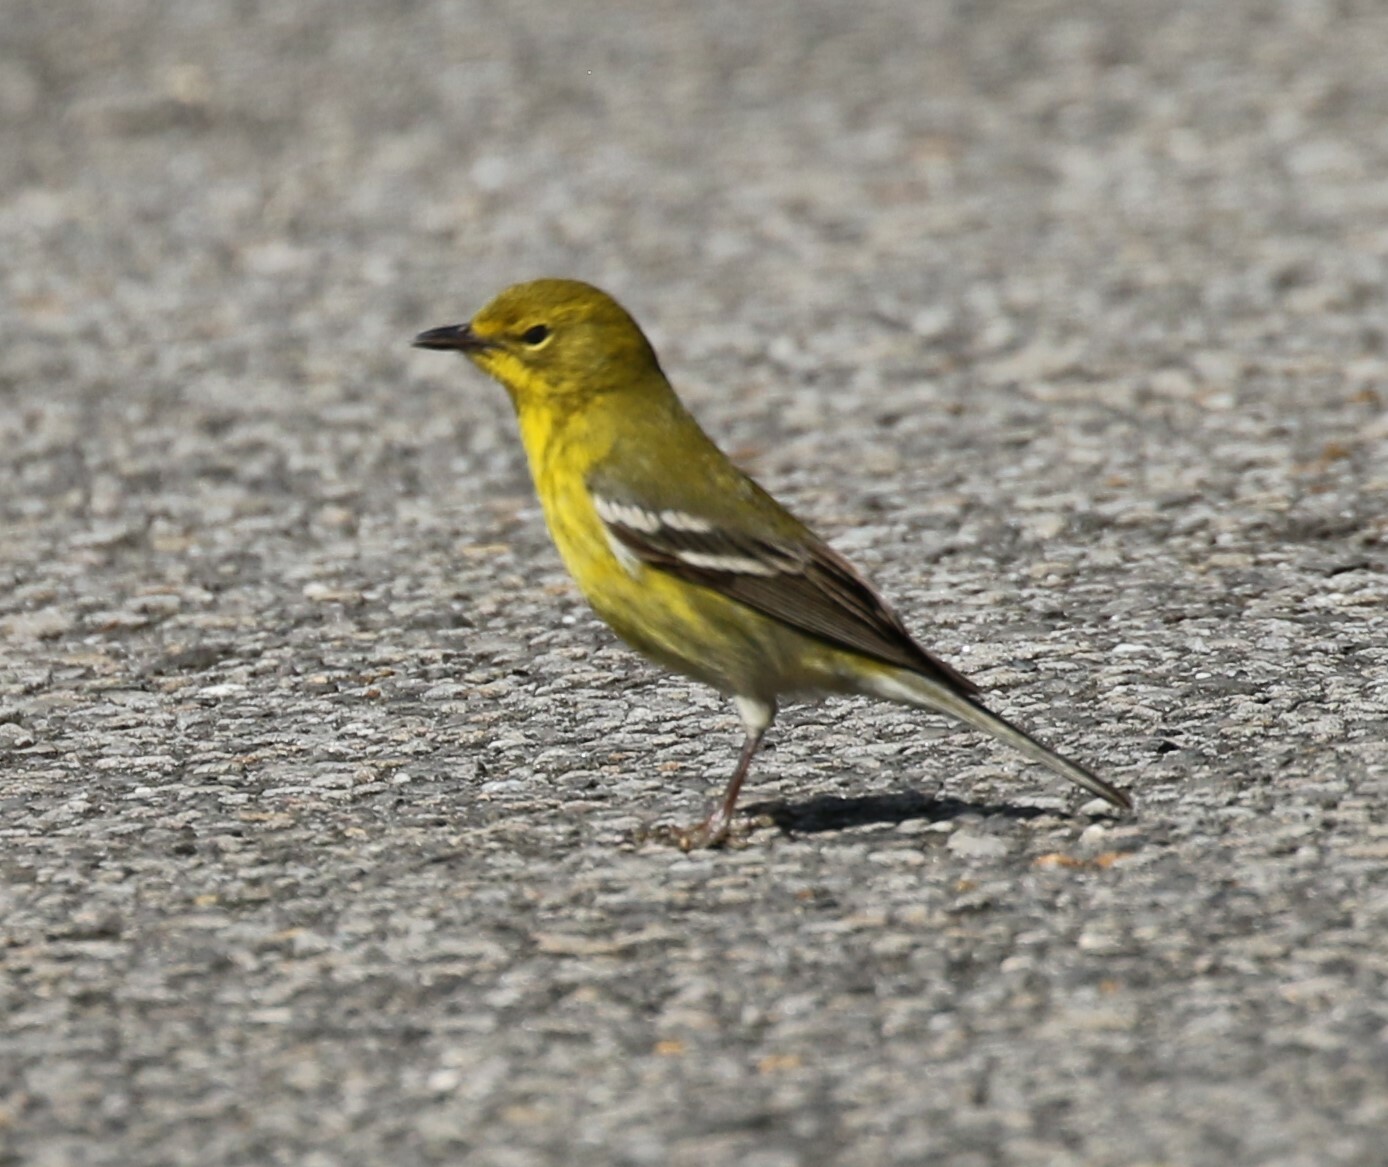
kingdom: Animalia
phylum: Chordata
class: Aves
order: Passeriformes
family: Parulidae
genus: Setophaga
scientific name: Setophaga pinus
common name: Pine warbler
